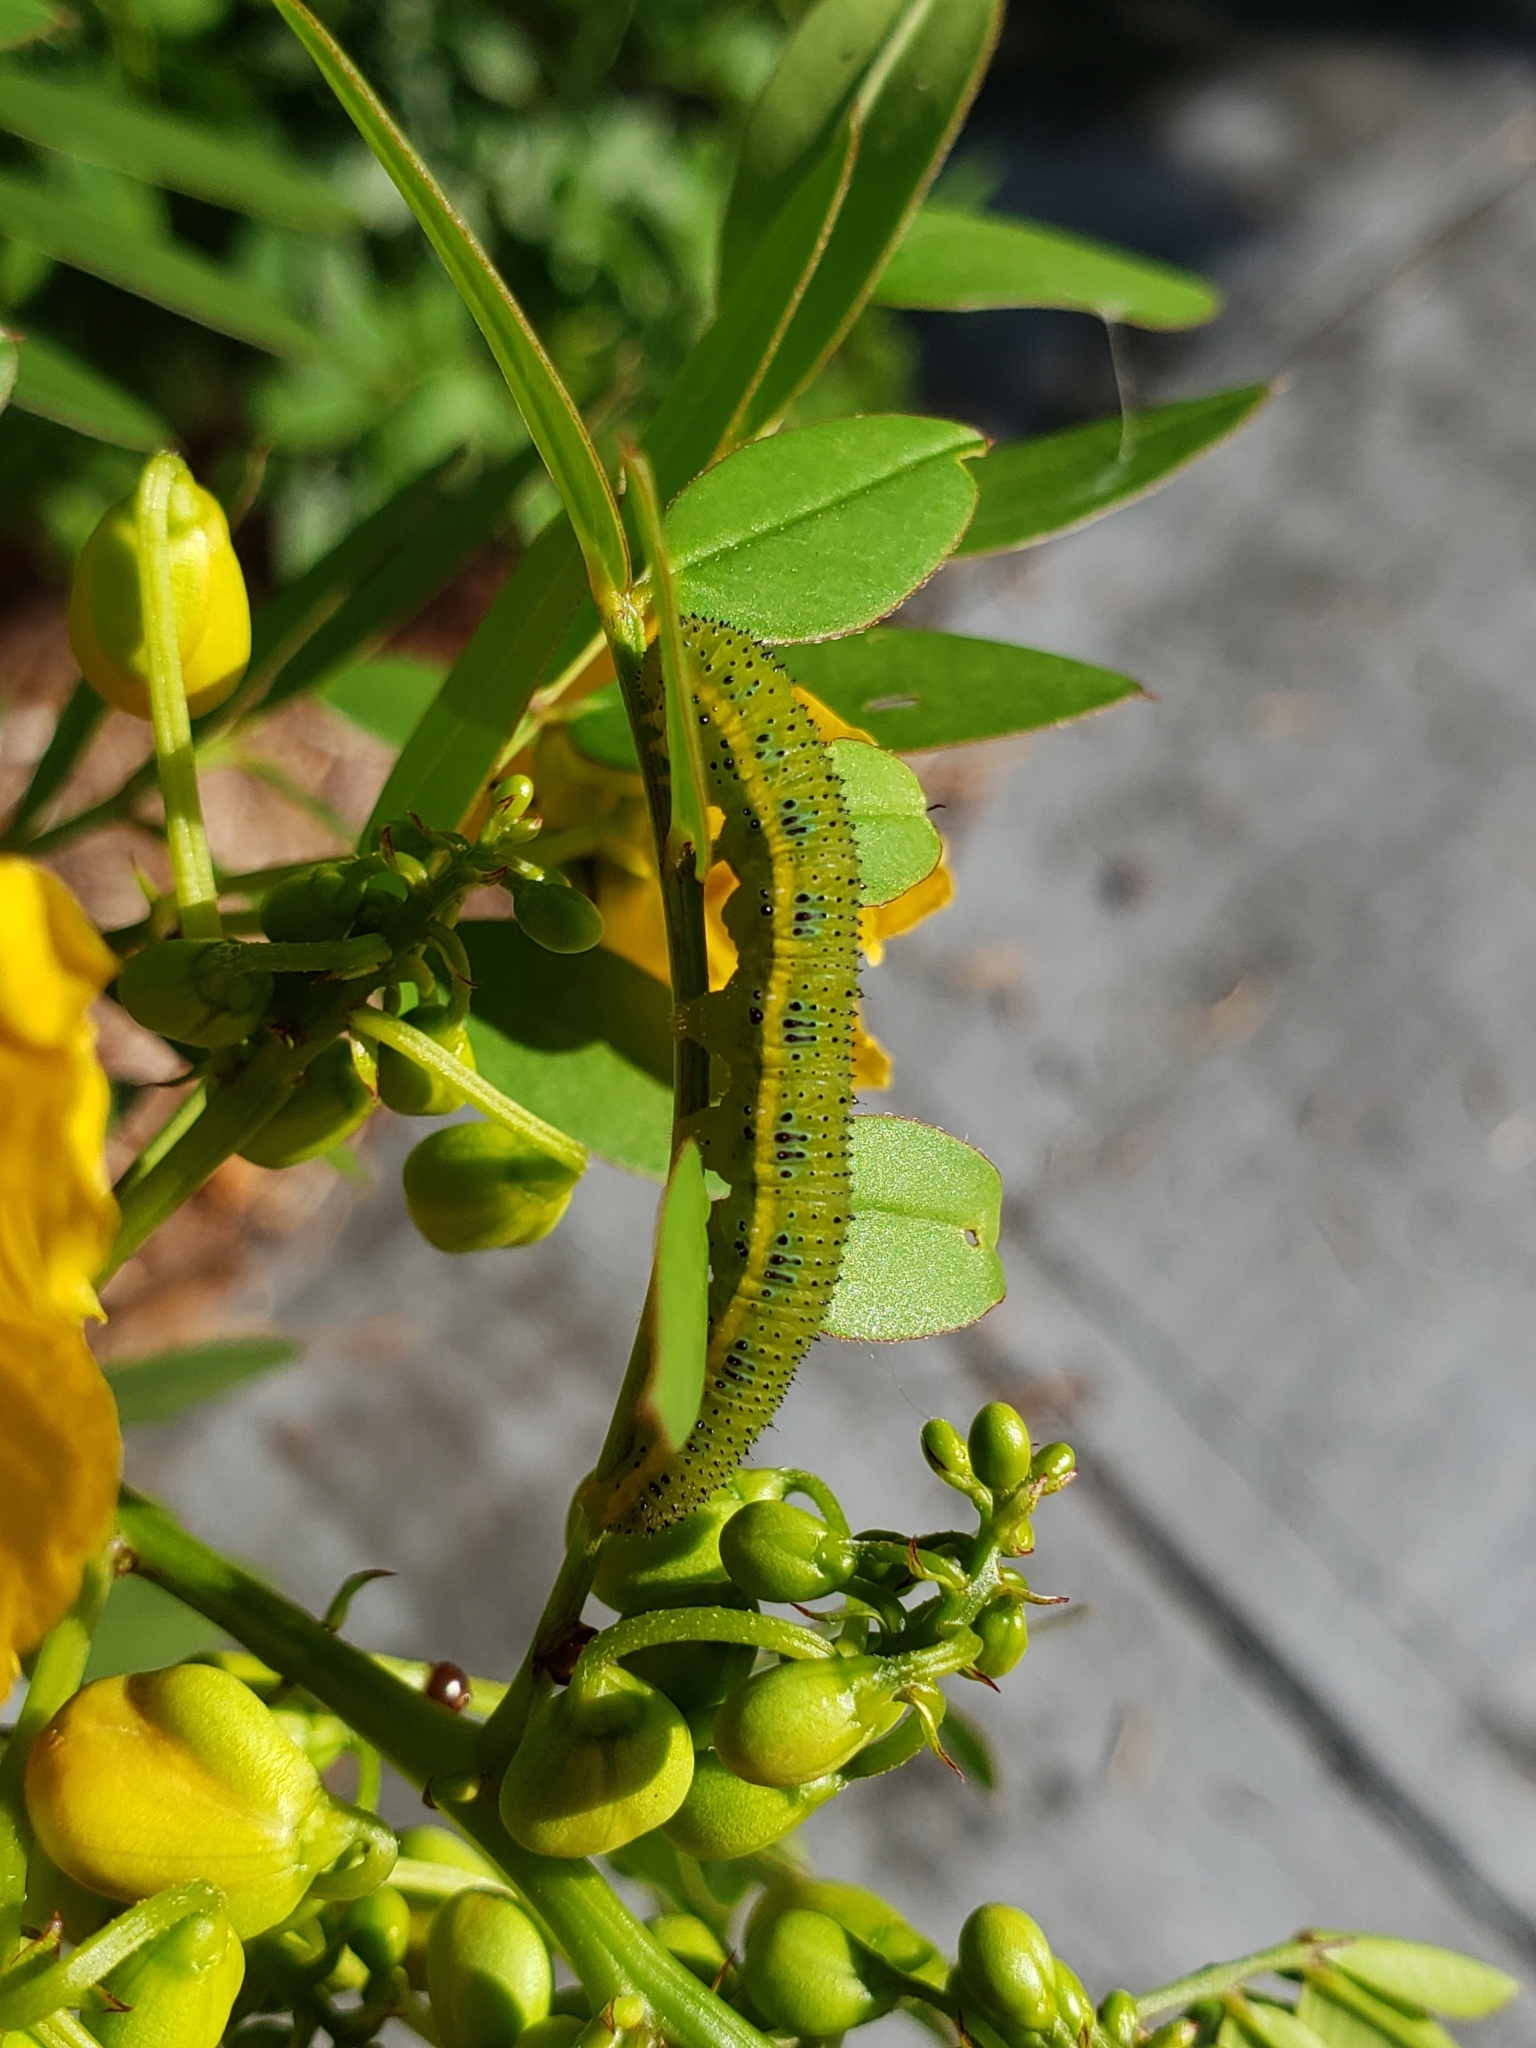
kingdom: Animalia
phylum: Arthropoda
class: Insecta
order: Lepidoptera
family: Pieridae
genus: Phoebis
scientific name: Phoebis sennae
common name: Cloudless sulphur
